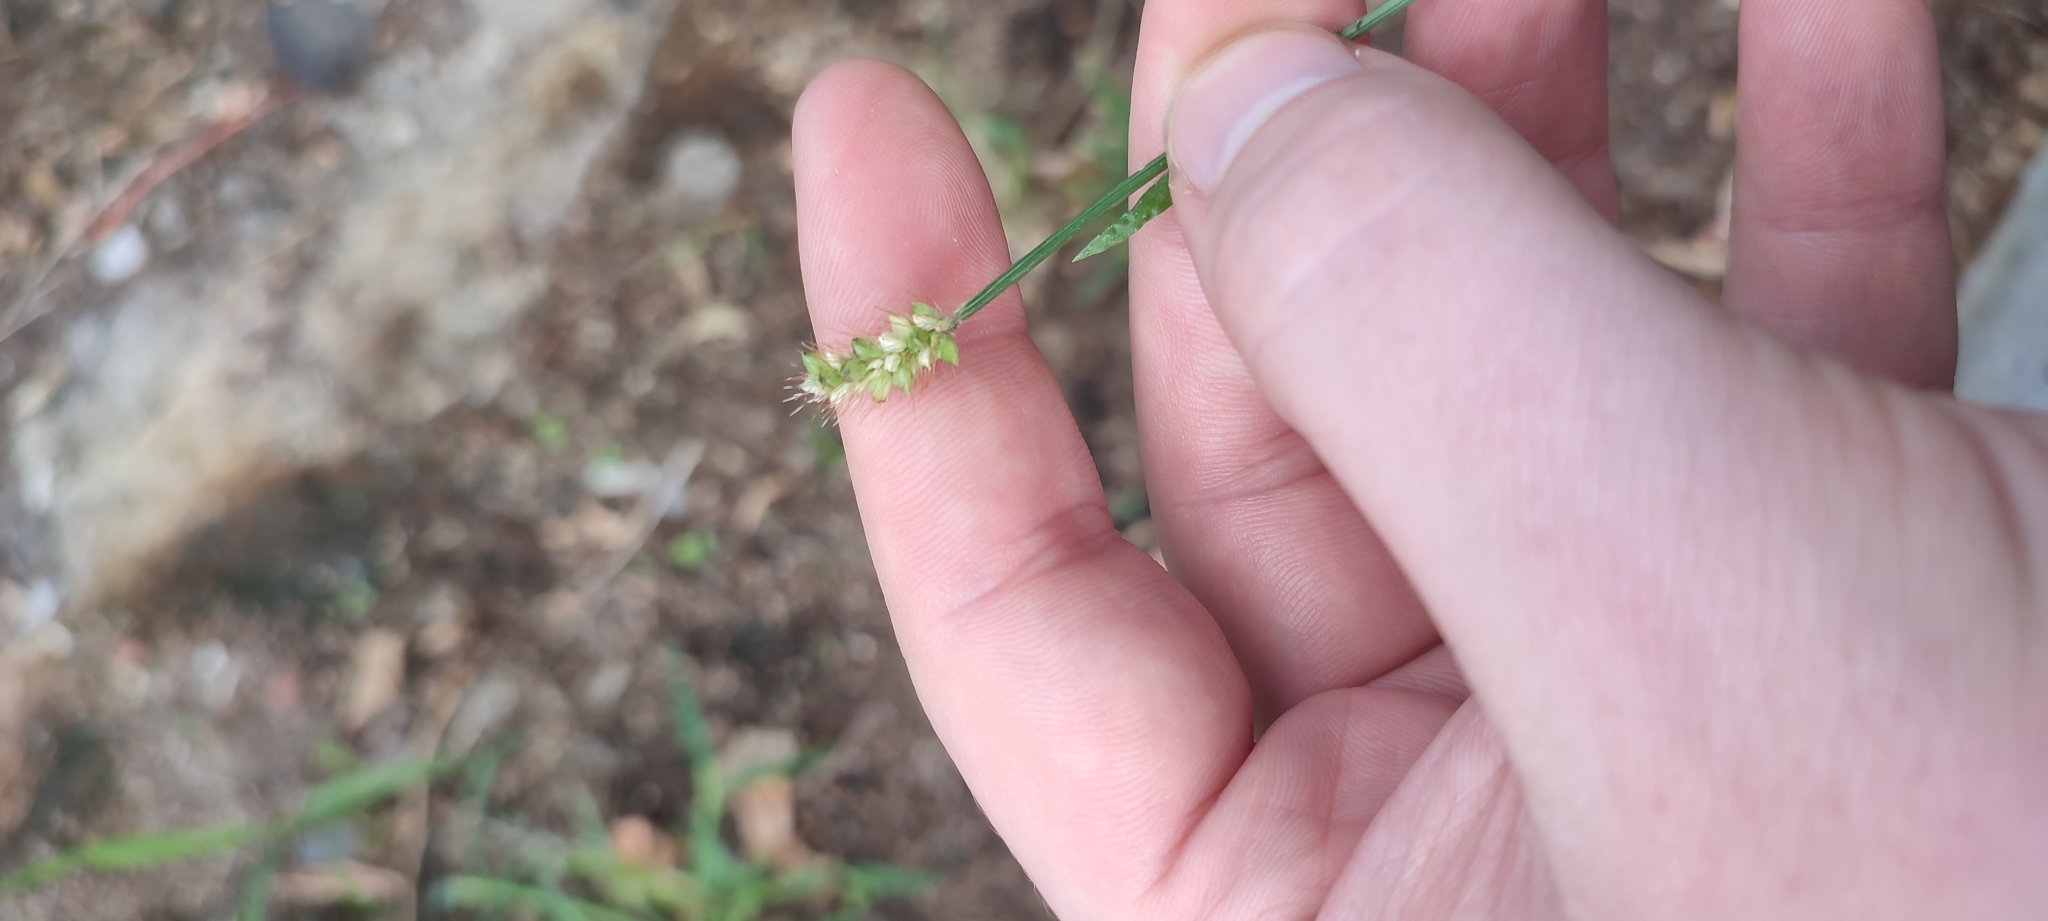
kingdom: Plantae
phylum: Tracheophyta
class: Liliopsida
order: Poales
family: Poaceae
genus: Setaria
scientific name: Setaria pumila
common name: Yellow bristle-grass
